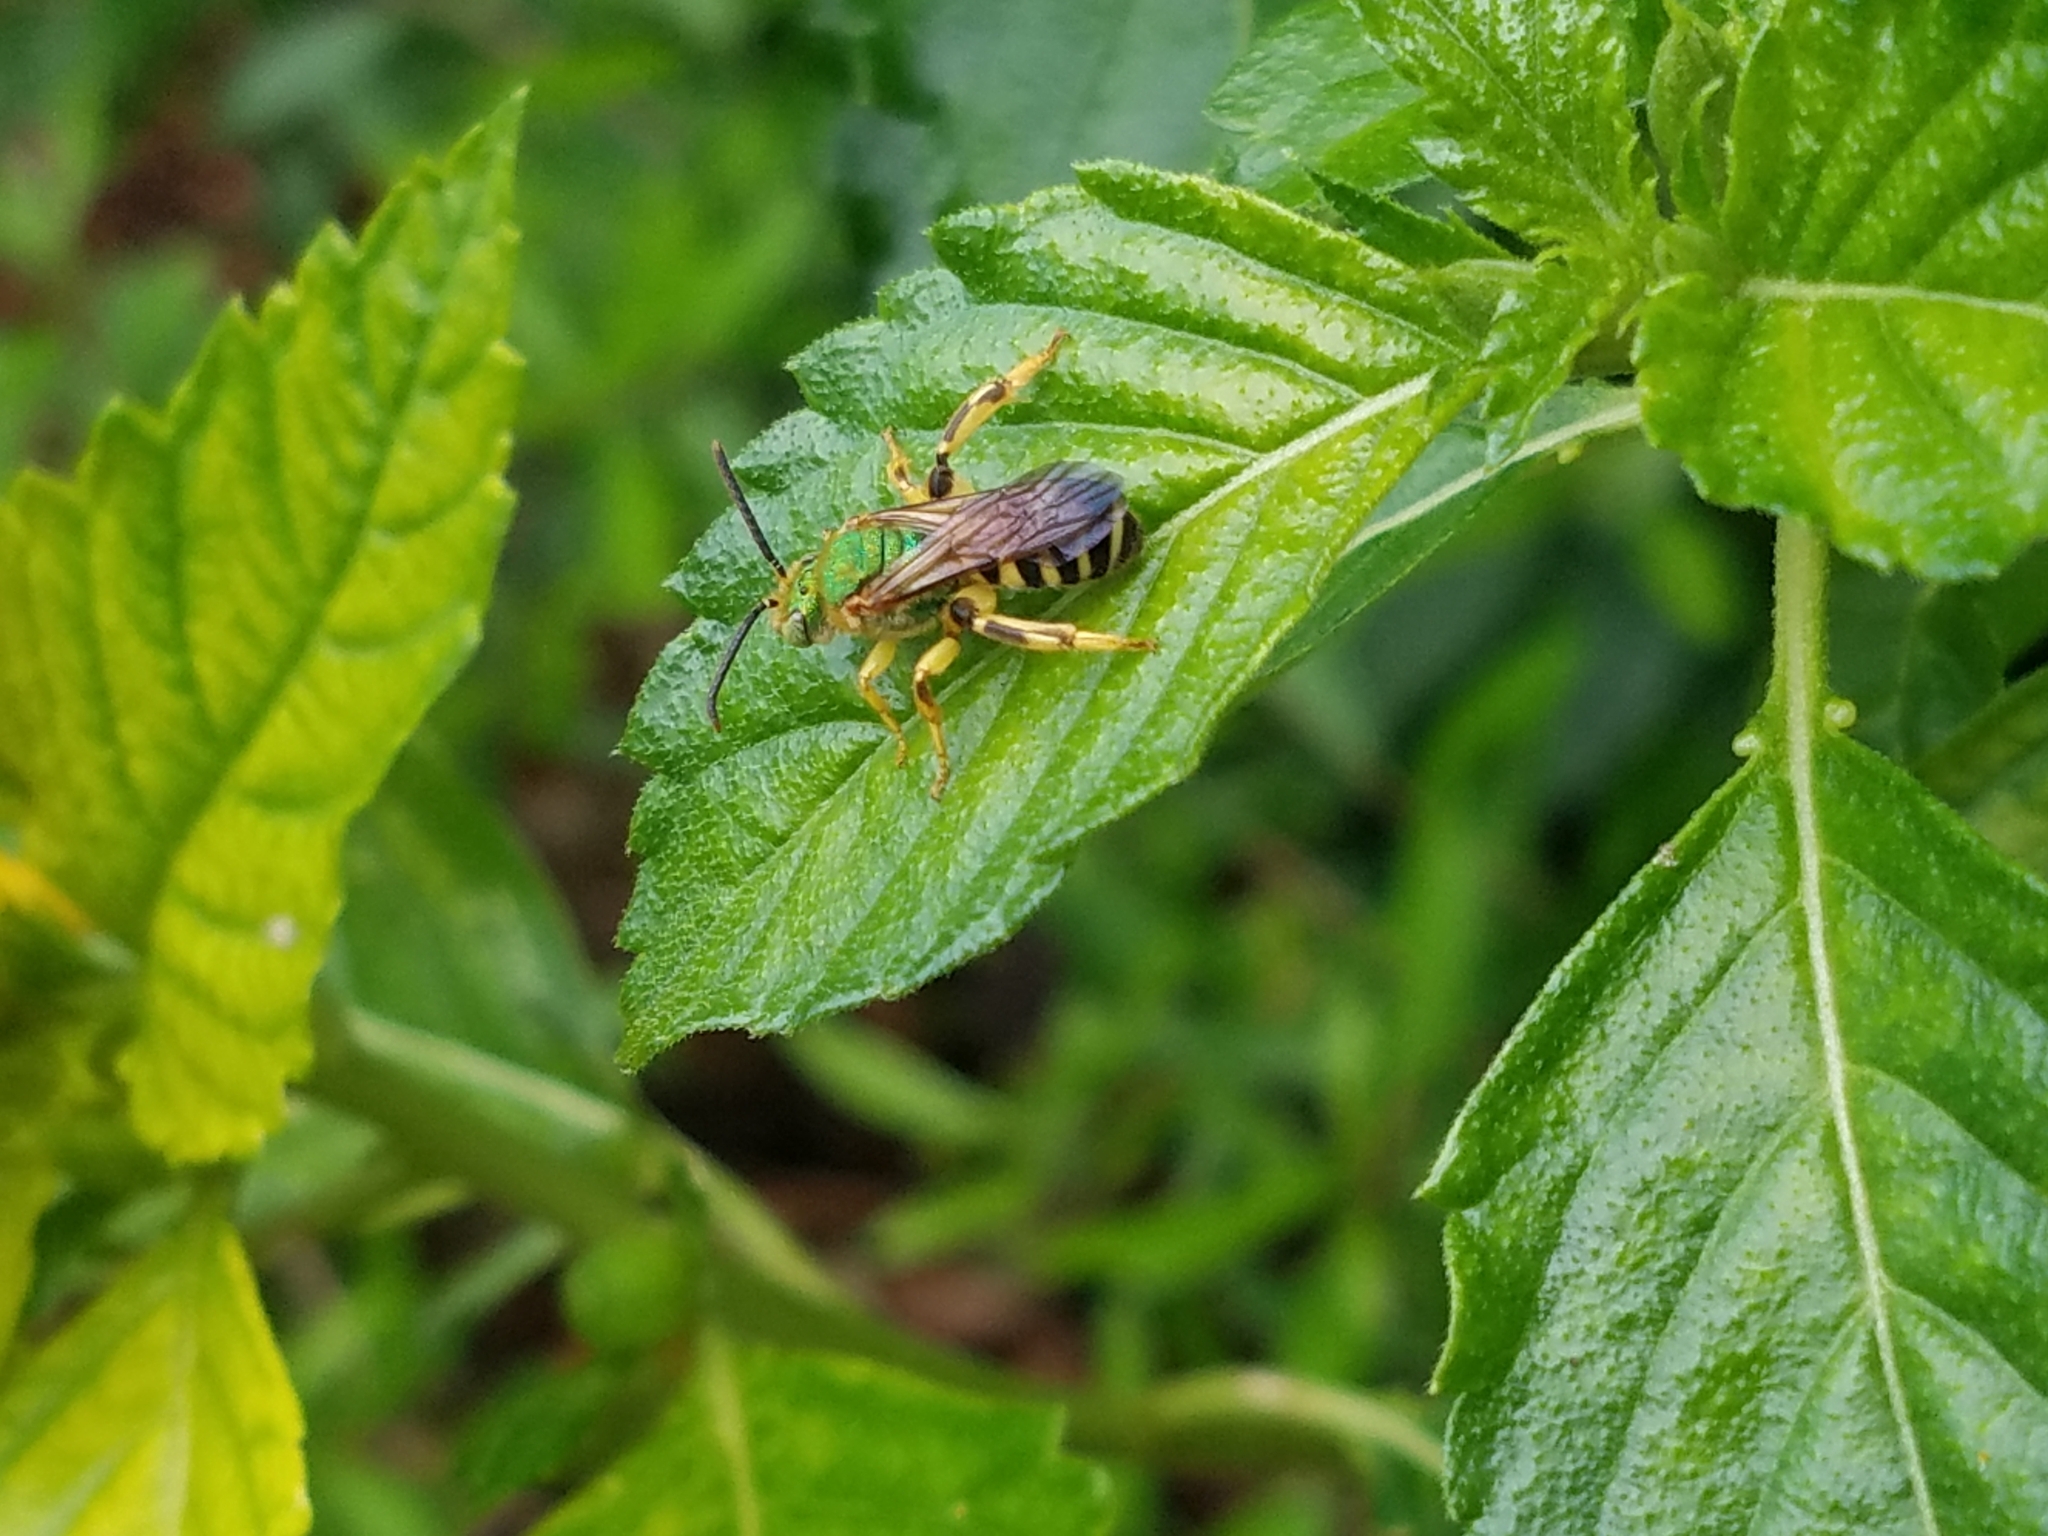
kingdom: Animalia
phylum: Arthropoda
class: Insecta
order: Hymenoptera
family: Halictidae
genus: Agapostemon
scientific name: Agapostemon splendens
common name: Brown-winged striped sweat bee
